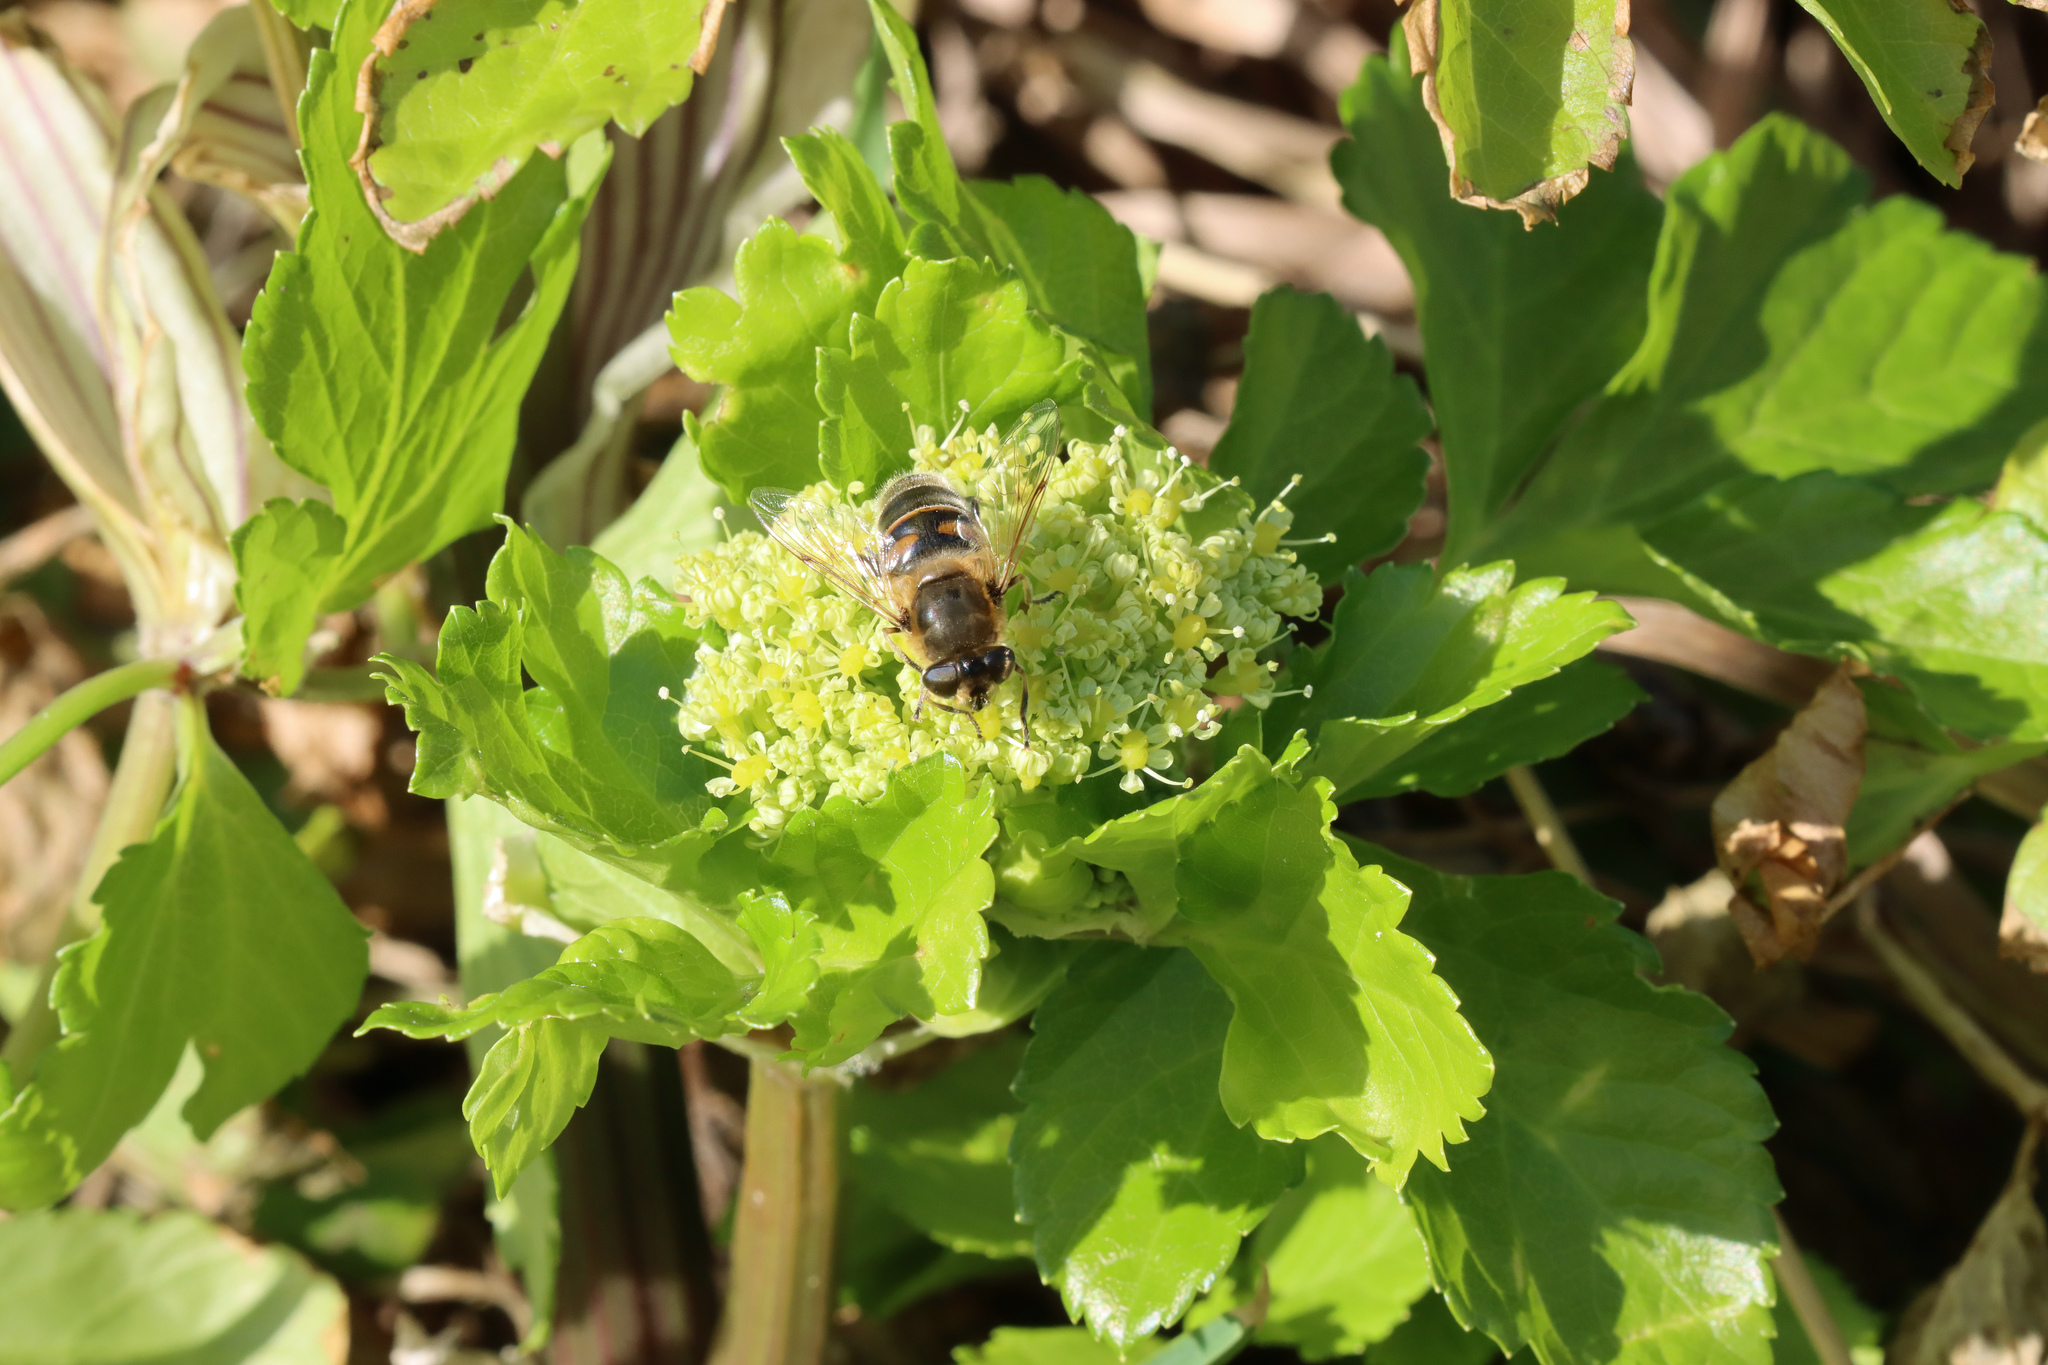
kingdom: Plantae
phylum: Tracheophyta
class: Magnoliopsida
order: Apiales
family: Apiaceae
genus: Smyrnium
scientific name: Smyrnium olusatrum
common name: Alexanders
